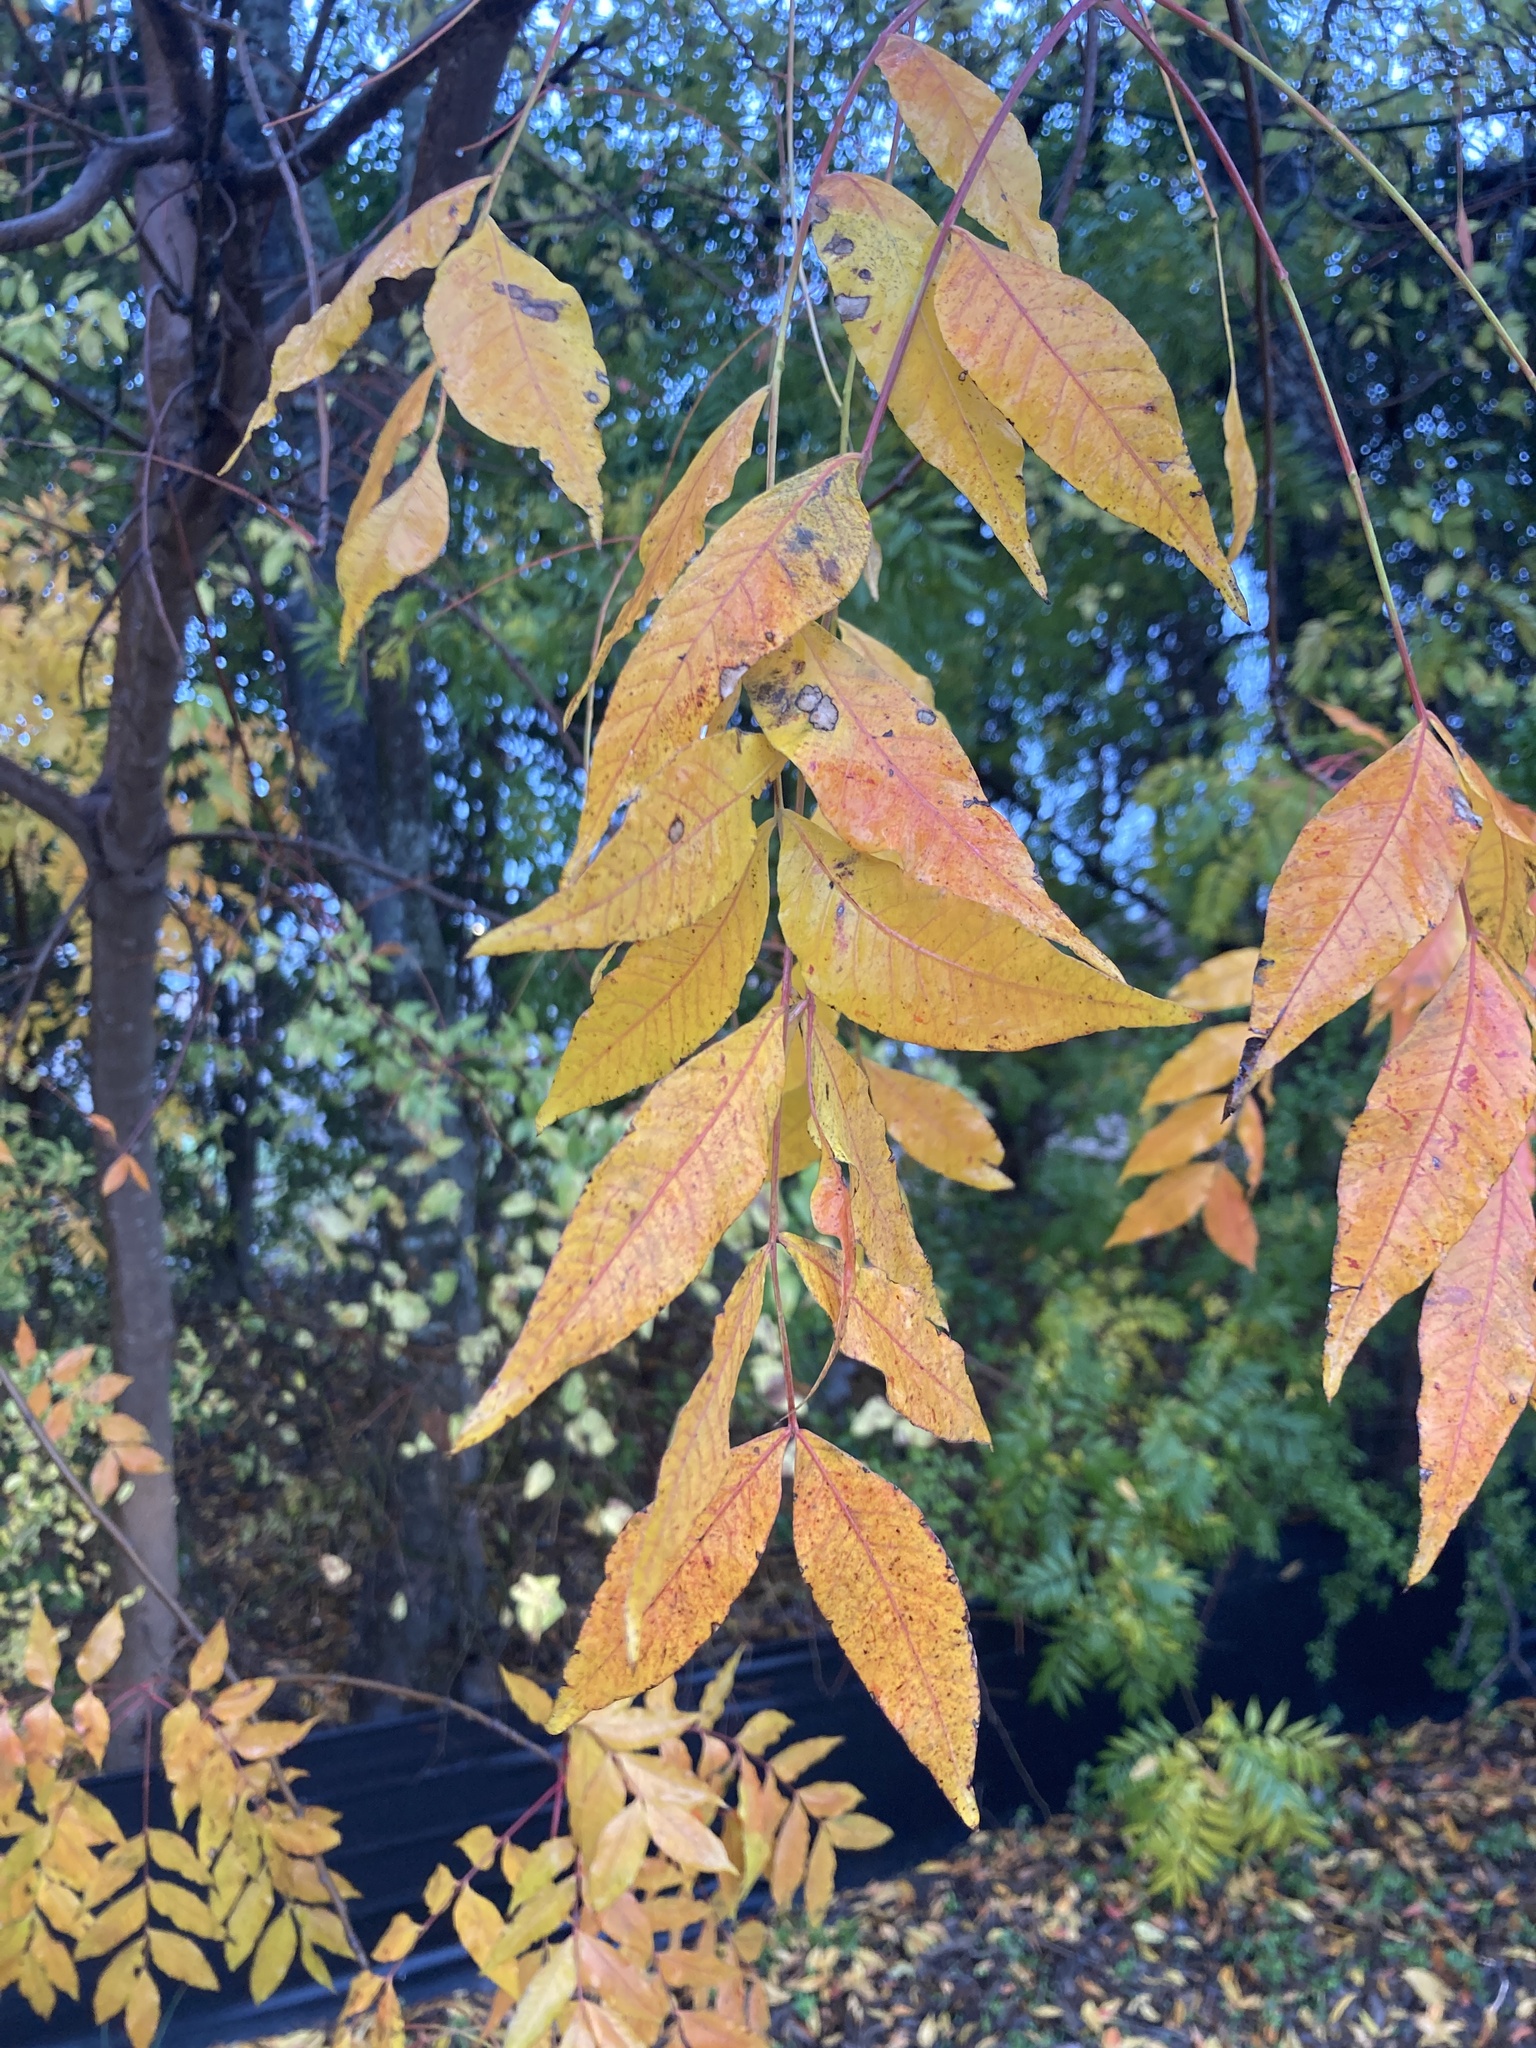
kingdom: Plantae
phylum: Tracheophyta
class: Magnoliopsida
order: Sapindales
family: Anacardiaceae
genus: Pistacia
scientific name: Pistacia chinensis
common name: Chinese pistache
